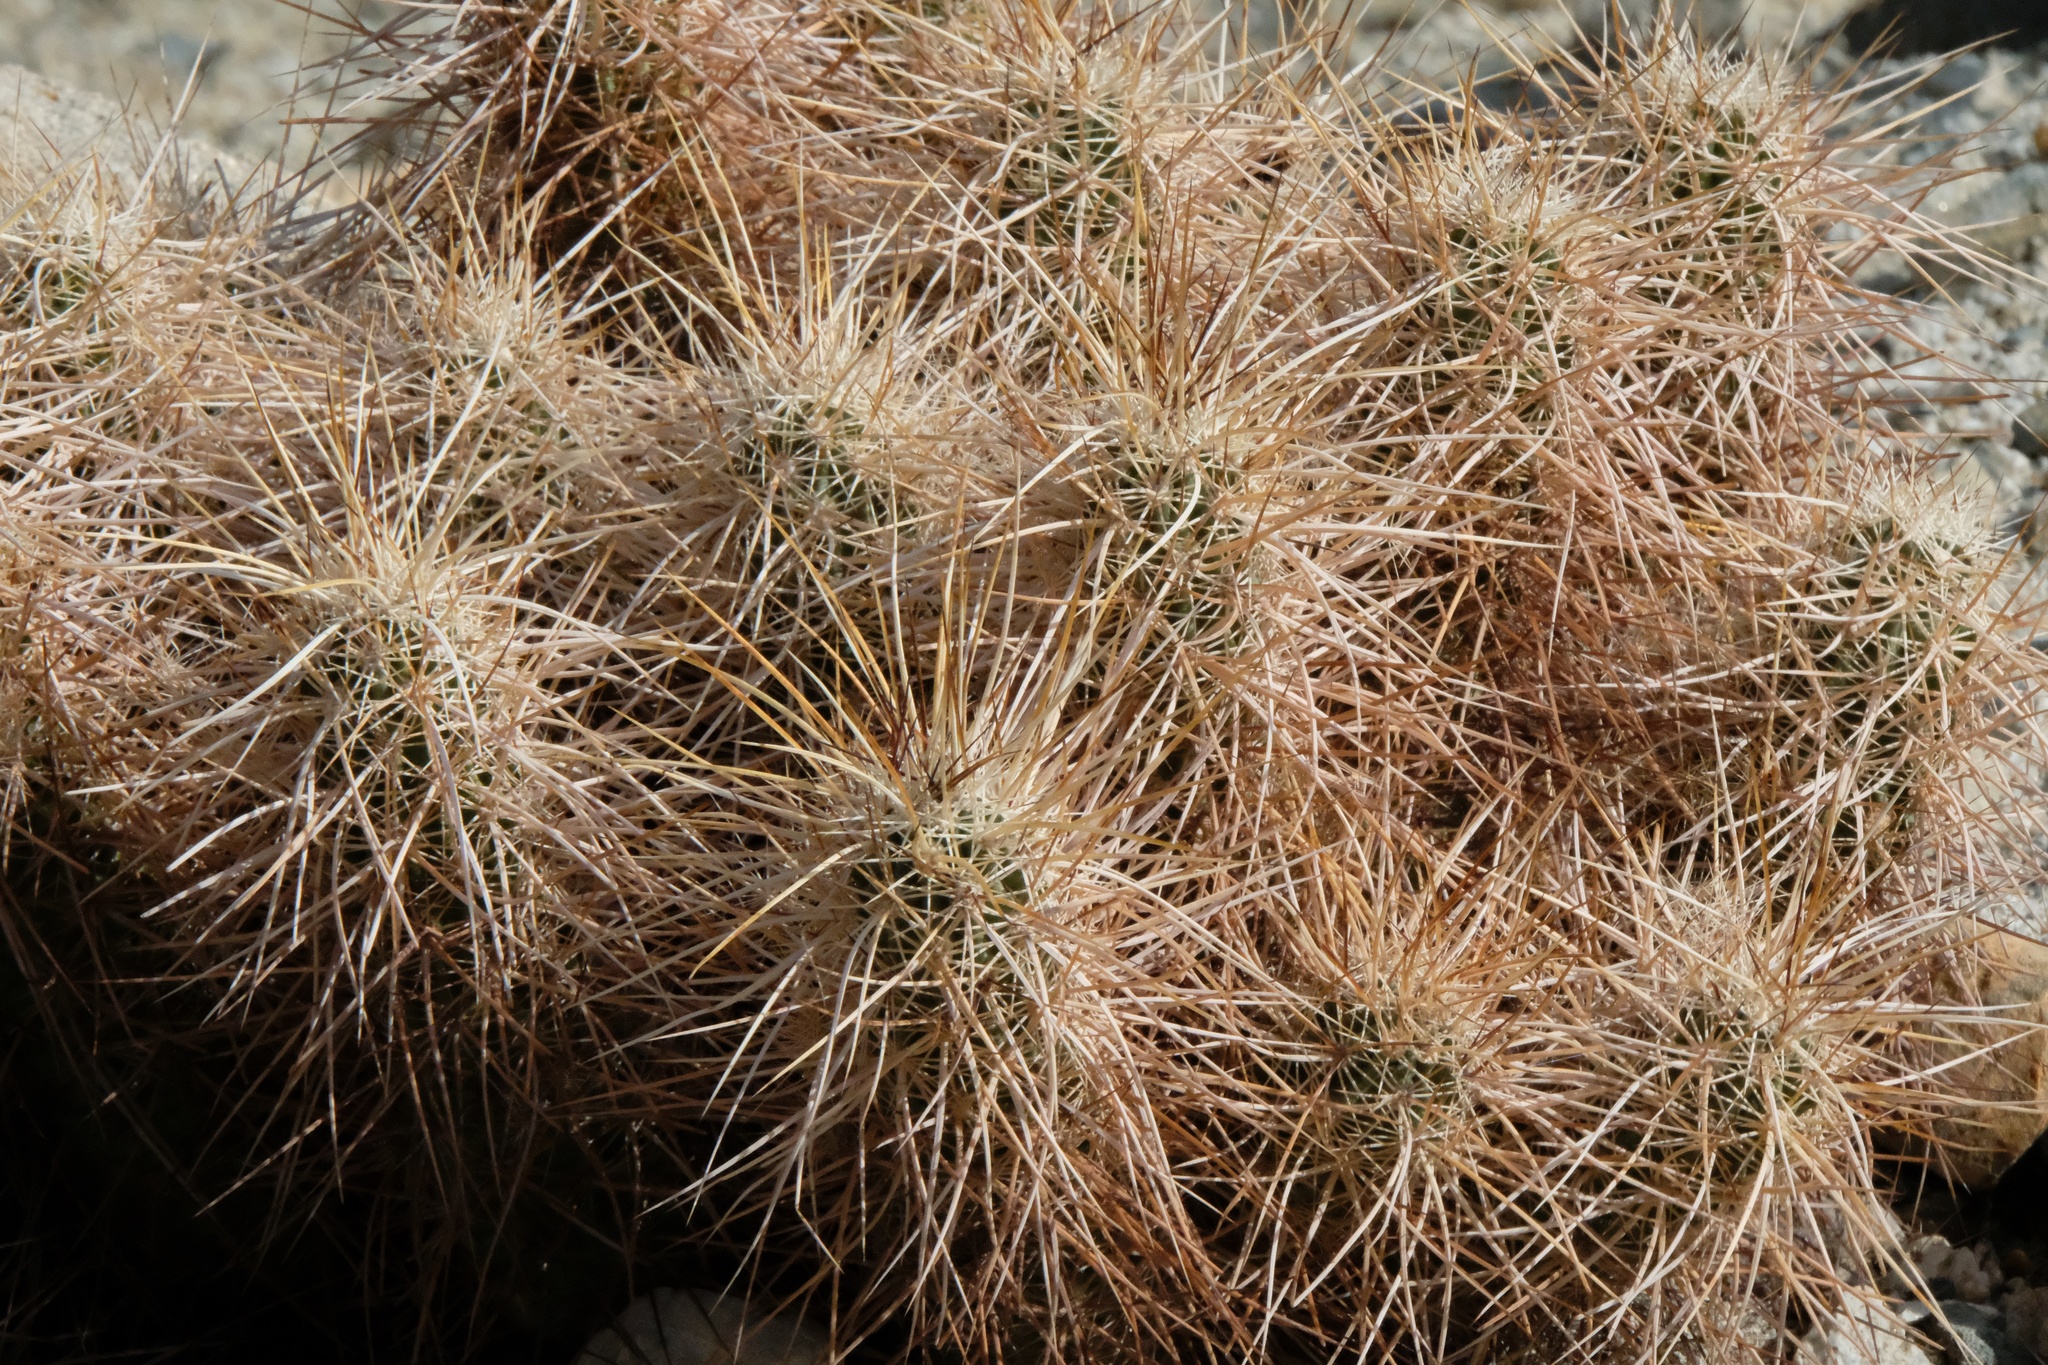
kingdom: Plantae
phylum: Tracheophyta
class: Magnoliopsida
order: Caryophyllales
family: Cactaceae
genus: Echinocereus
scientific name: Echinocereus engelmannii
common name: Engelmann's hedgehog cactus
